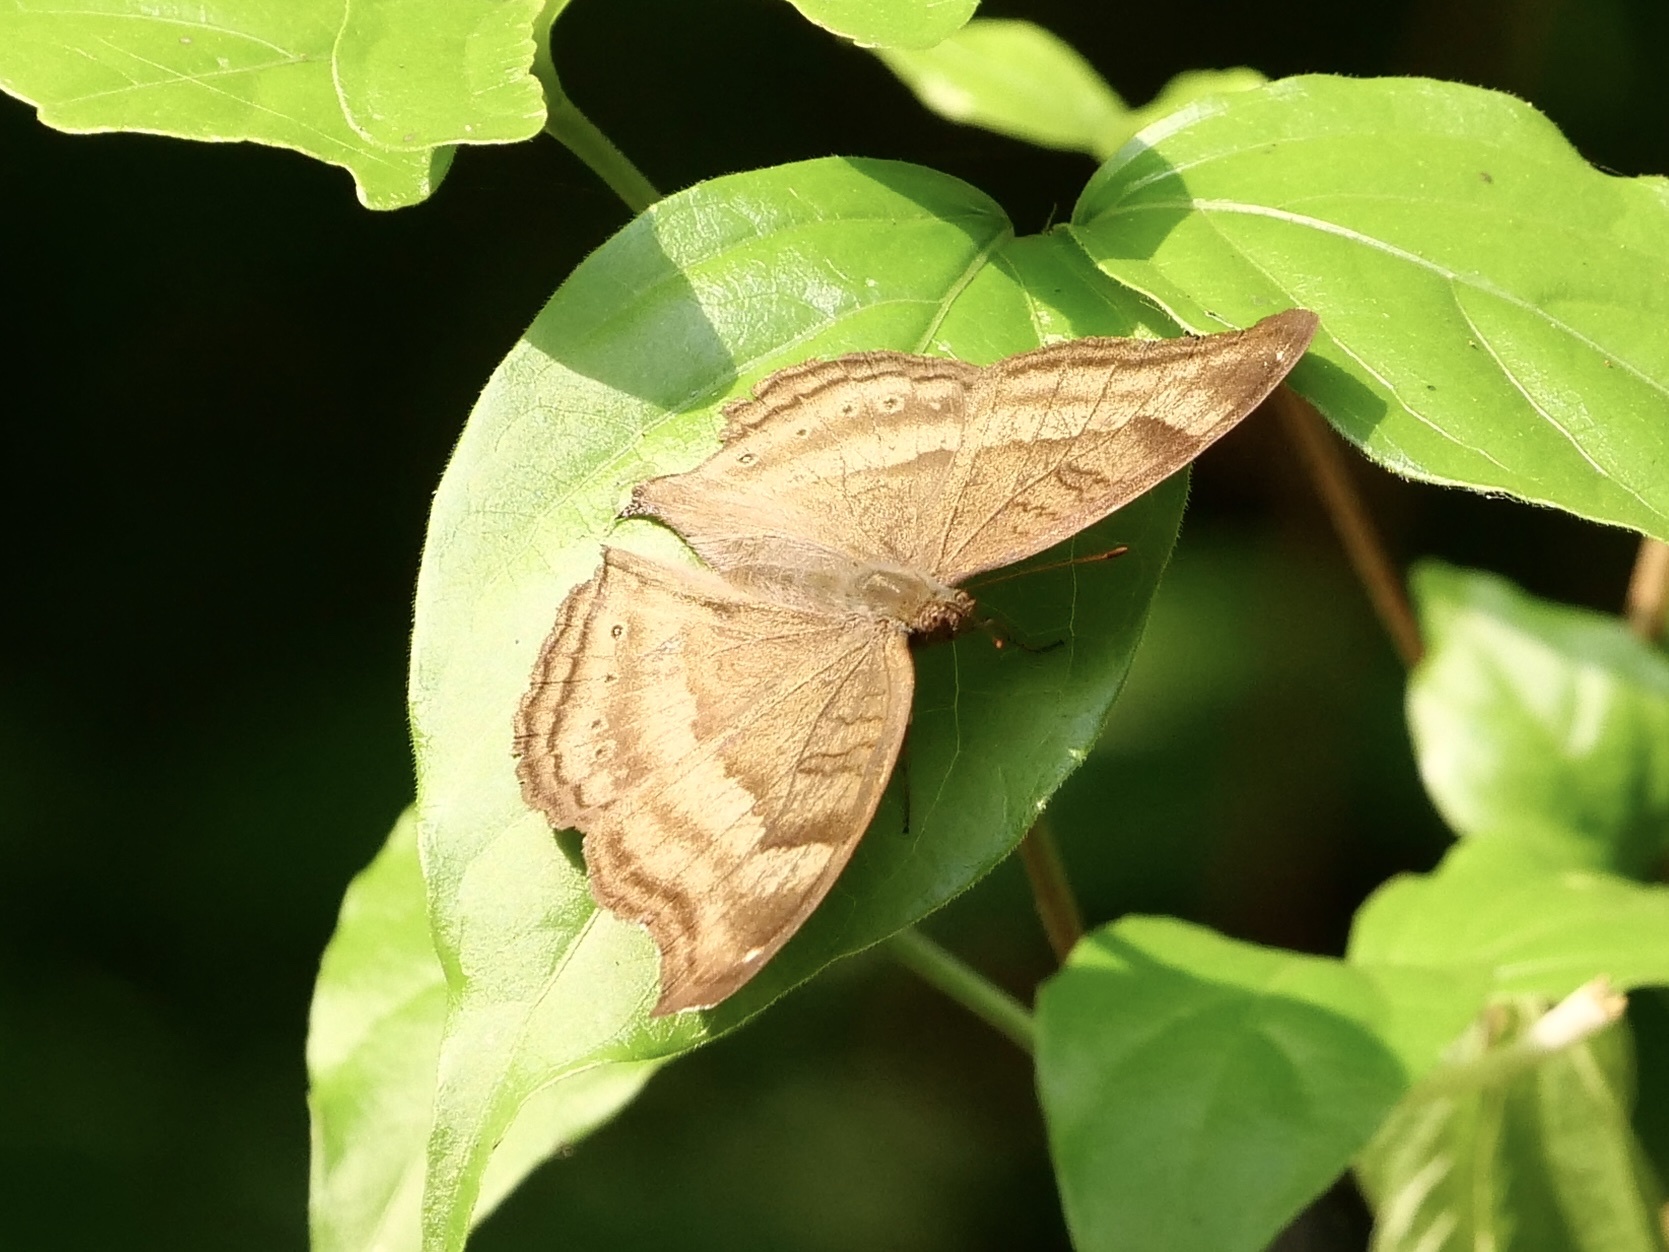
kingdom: Animalia
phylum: Arthropoda
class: Insecta
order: Lepidoptera
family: Nymphalidae
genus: Junonia
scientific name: Junonia iphita
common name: Chocolate pansy
